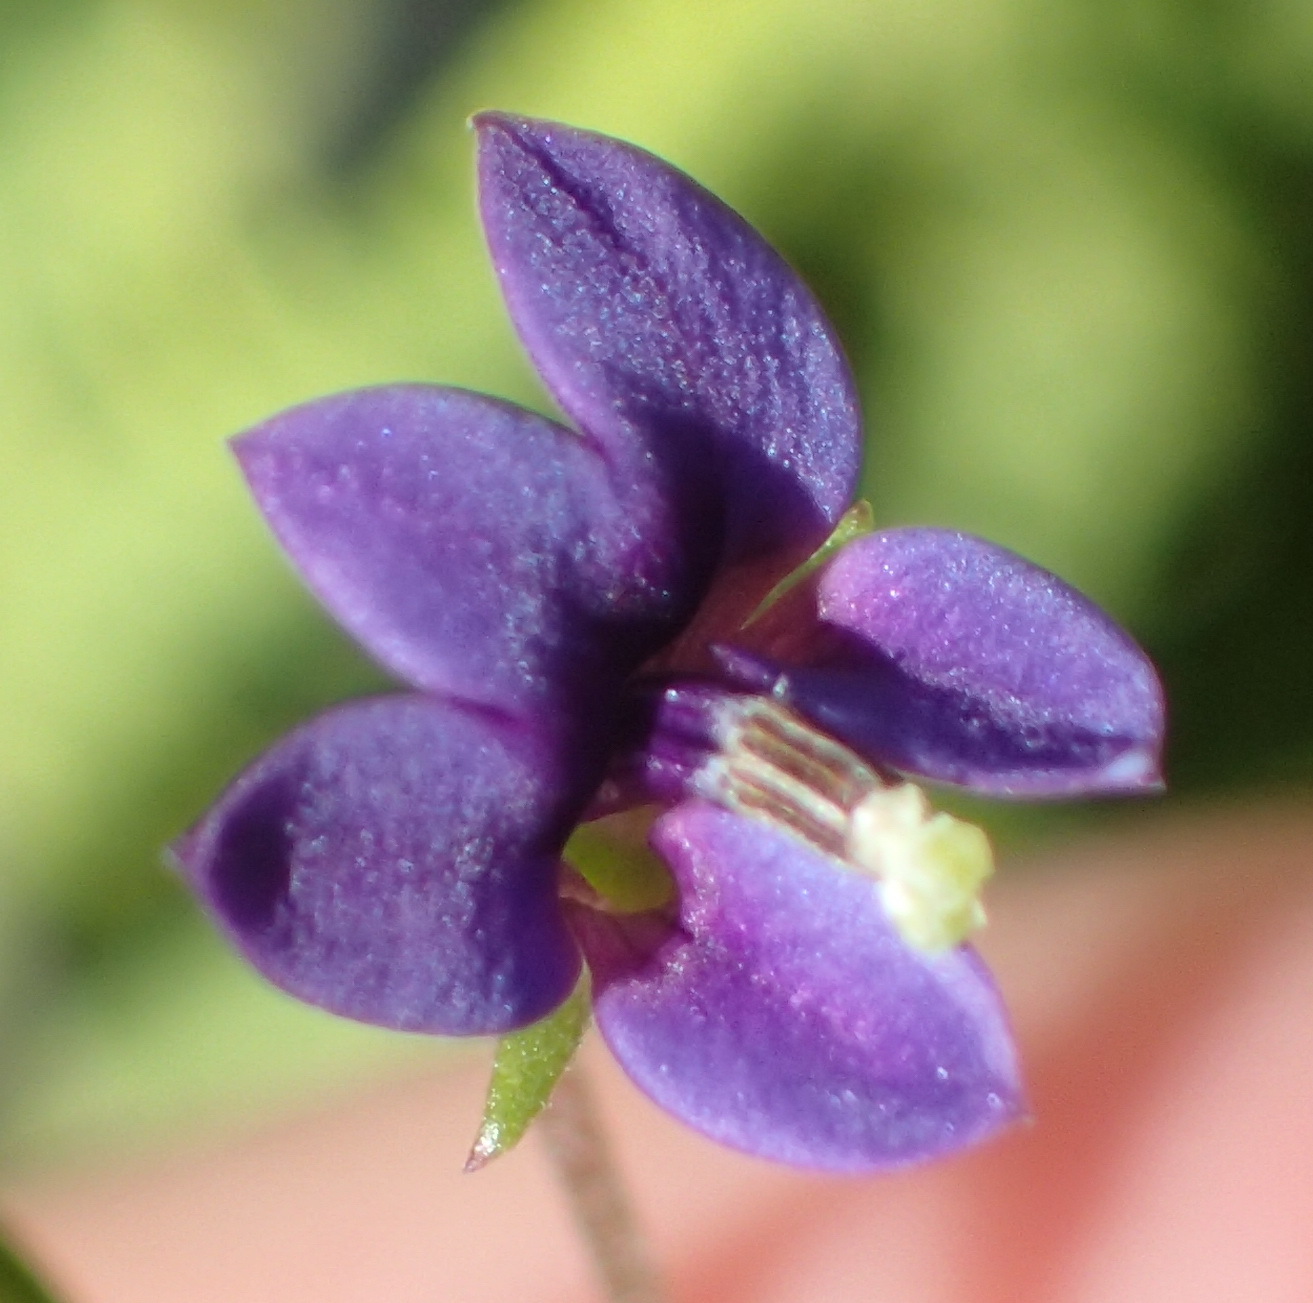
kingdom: Plantae
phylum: Tracheophyta
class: Magnoliopsida
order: Asterales
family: Campanulaceae
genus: Monopsis
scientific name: Monopsis simplex
